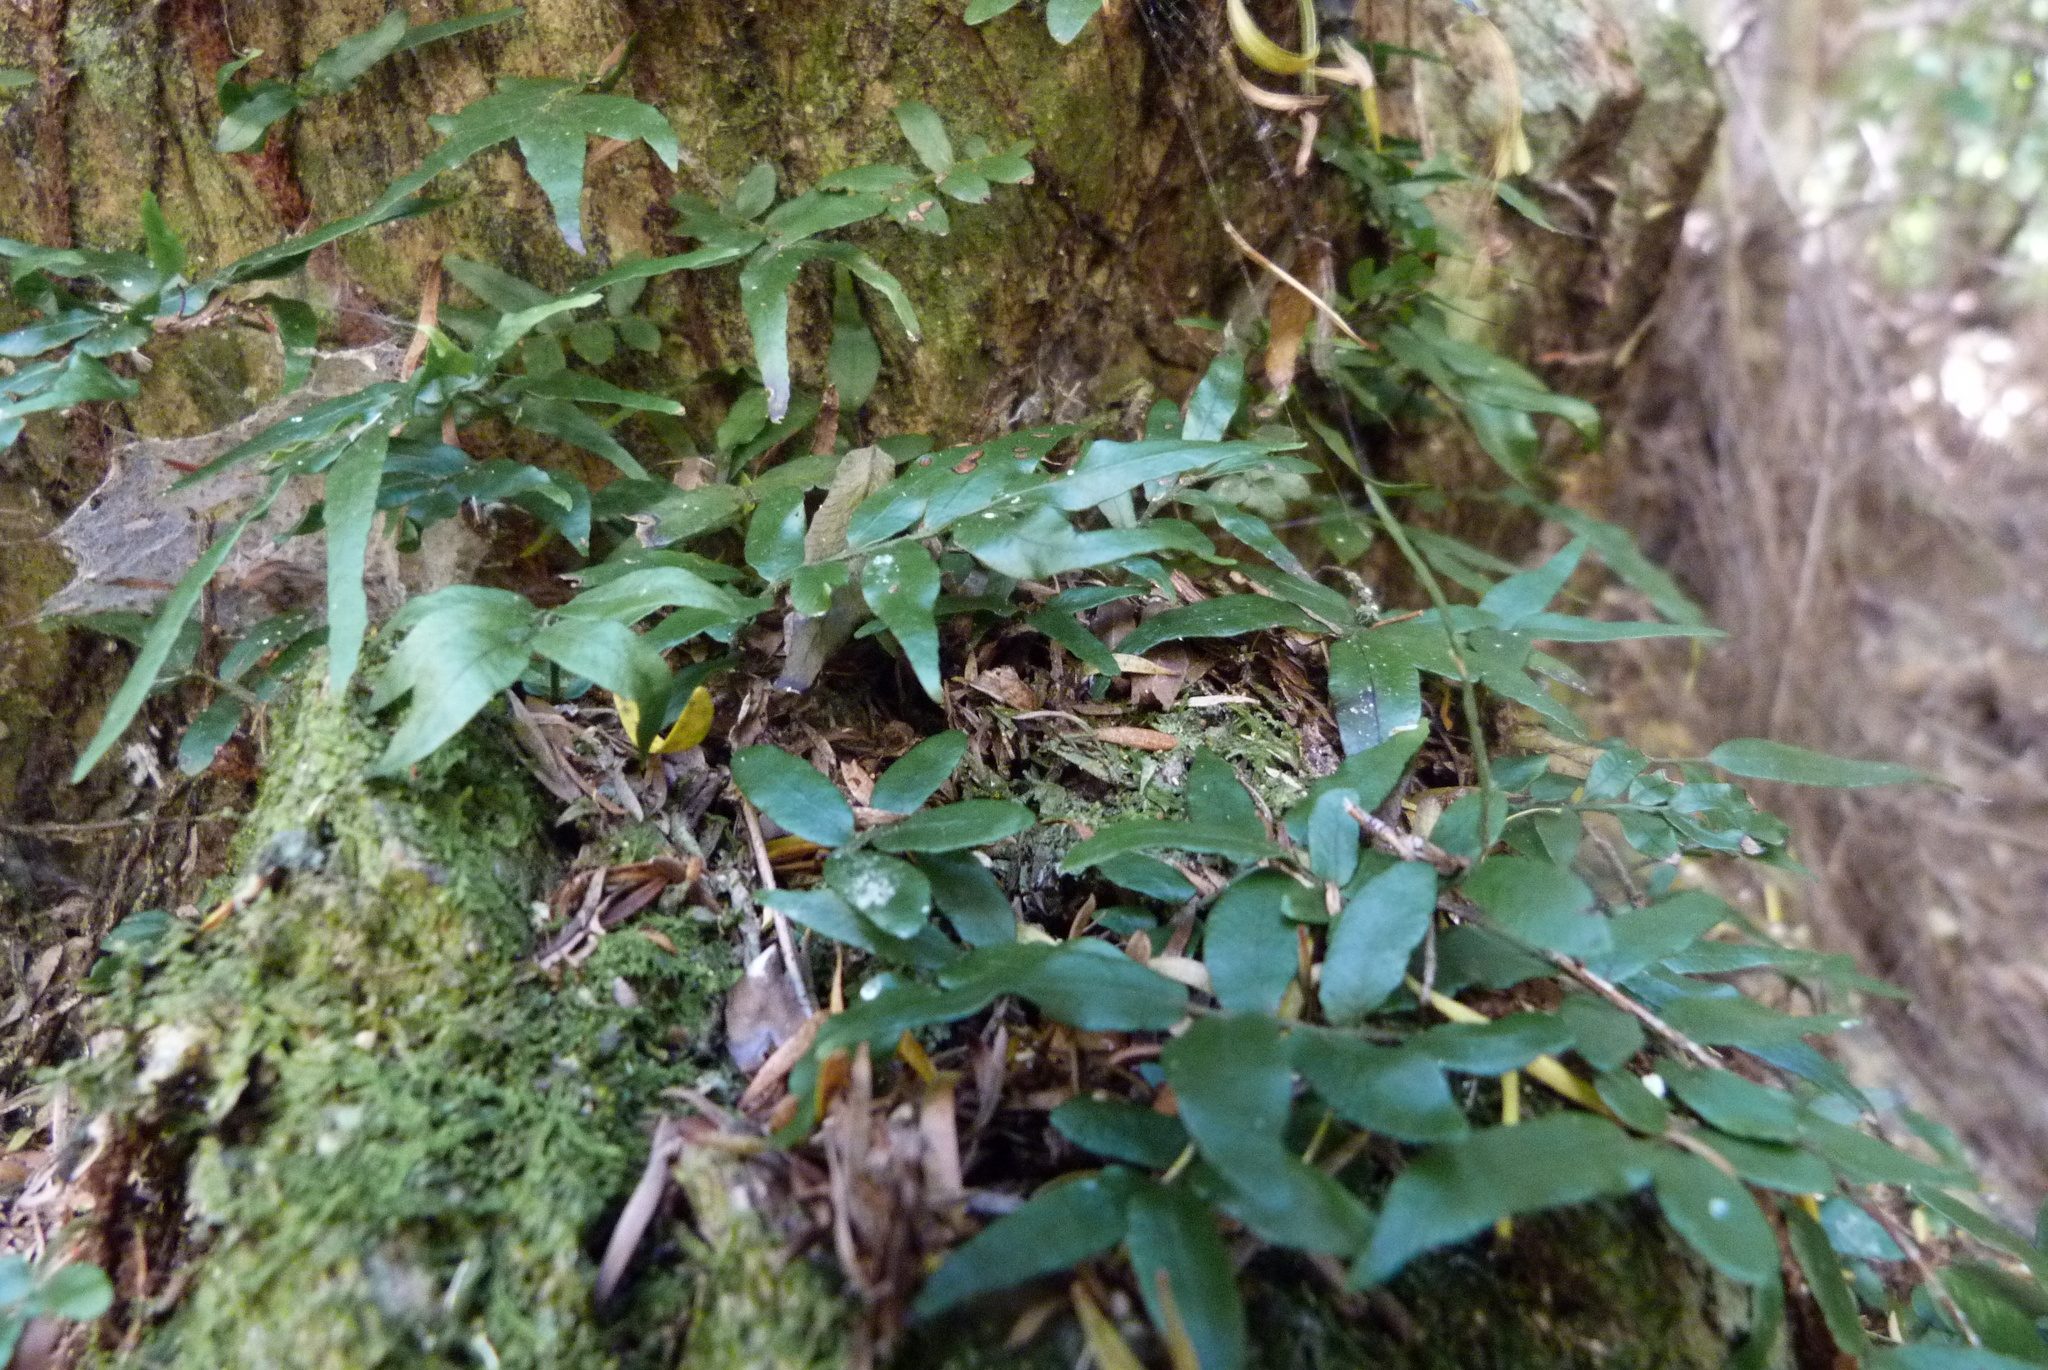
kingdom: Plantae
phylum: Tracheophyta
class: Polypodiopsida
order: Polypodiales
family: Tectariaceae
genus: Arthropteris
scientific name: Arthropteris tenella
